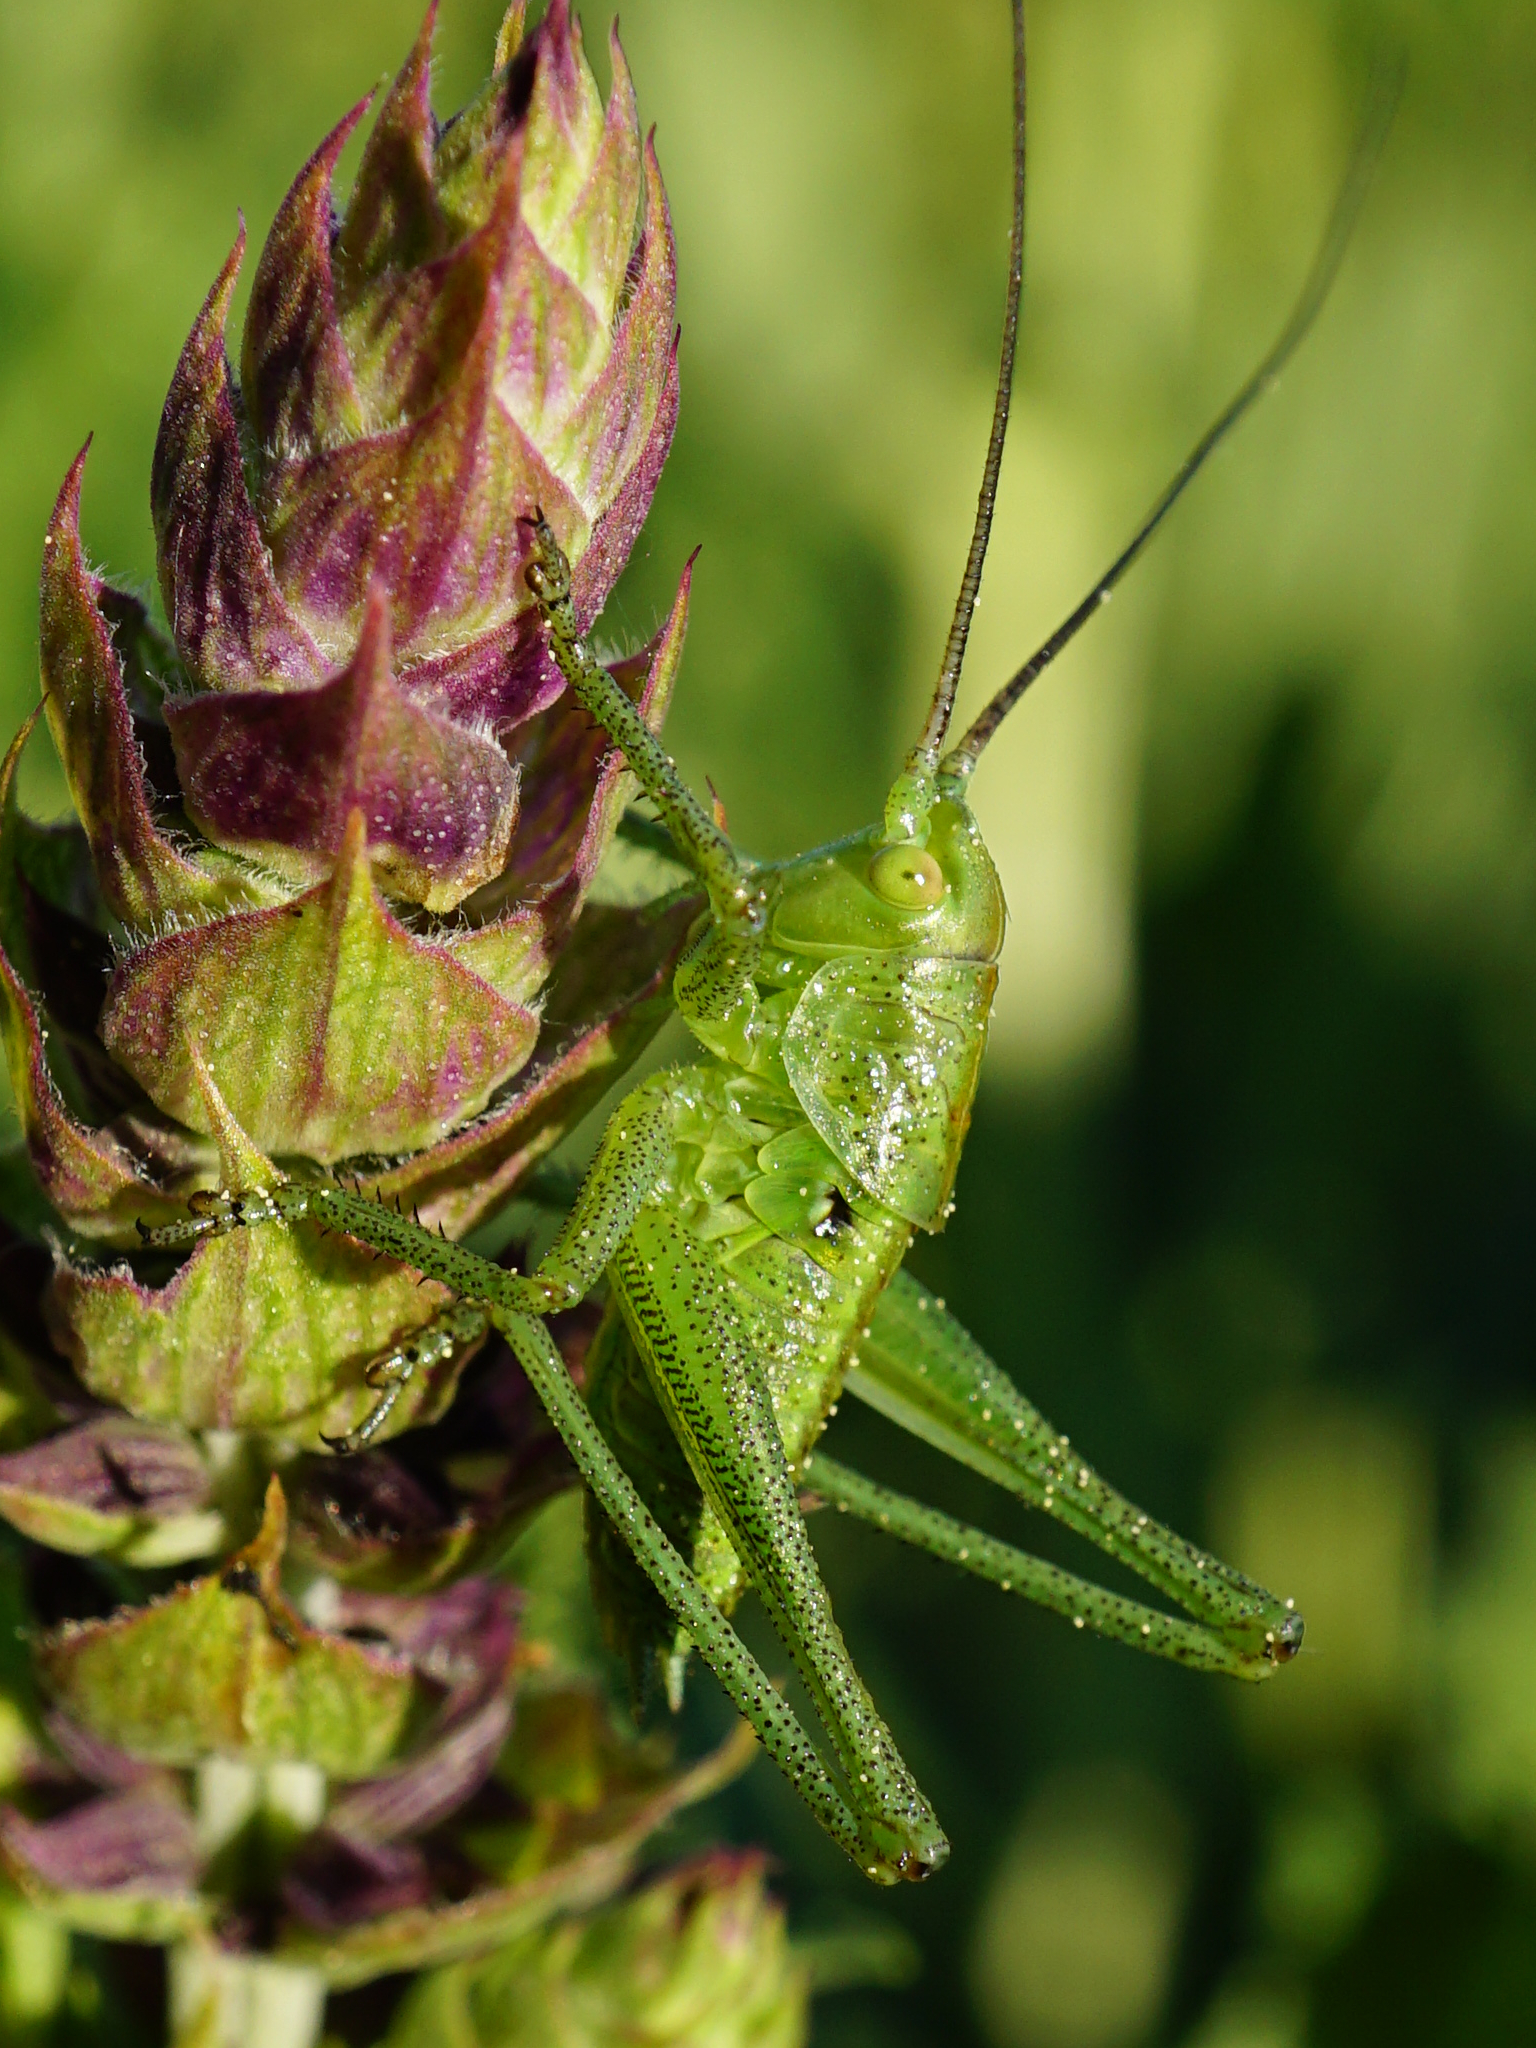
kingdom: Animalia
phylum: Arthropoda
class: Insecta
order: Orthoptera
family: Tettigoniidae
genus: Tettigonia
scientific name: Tettigonia
